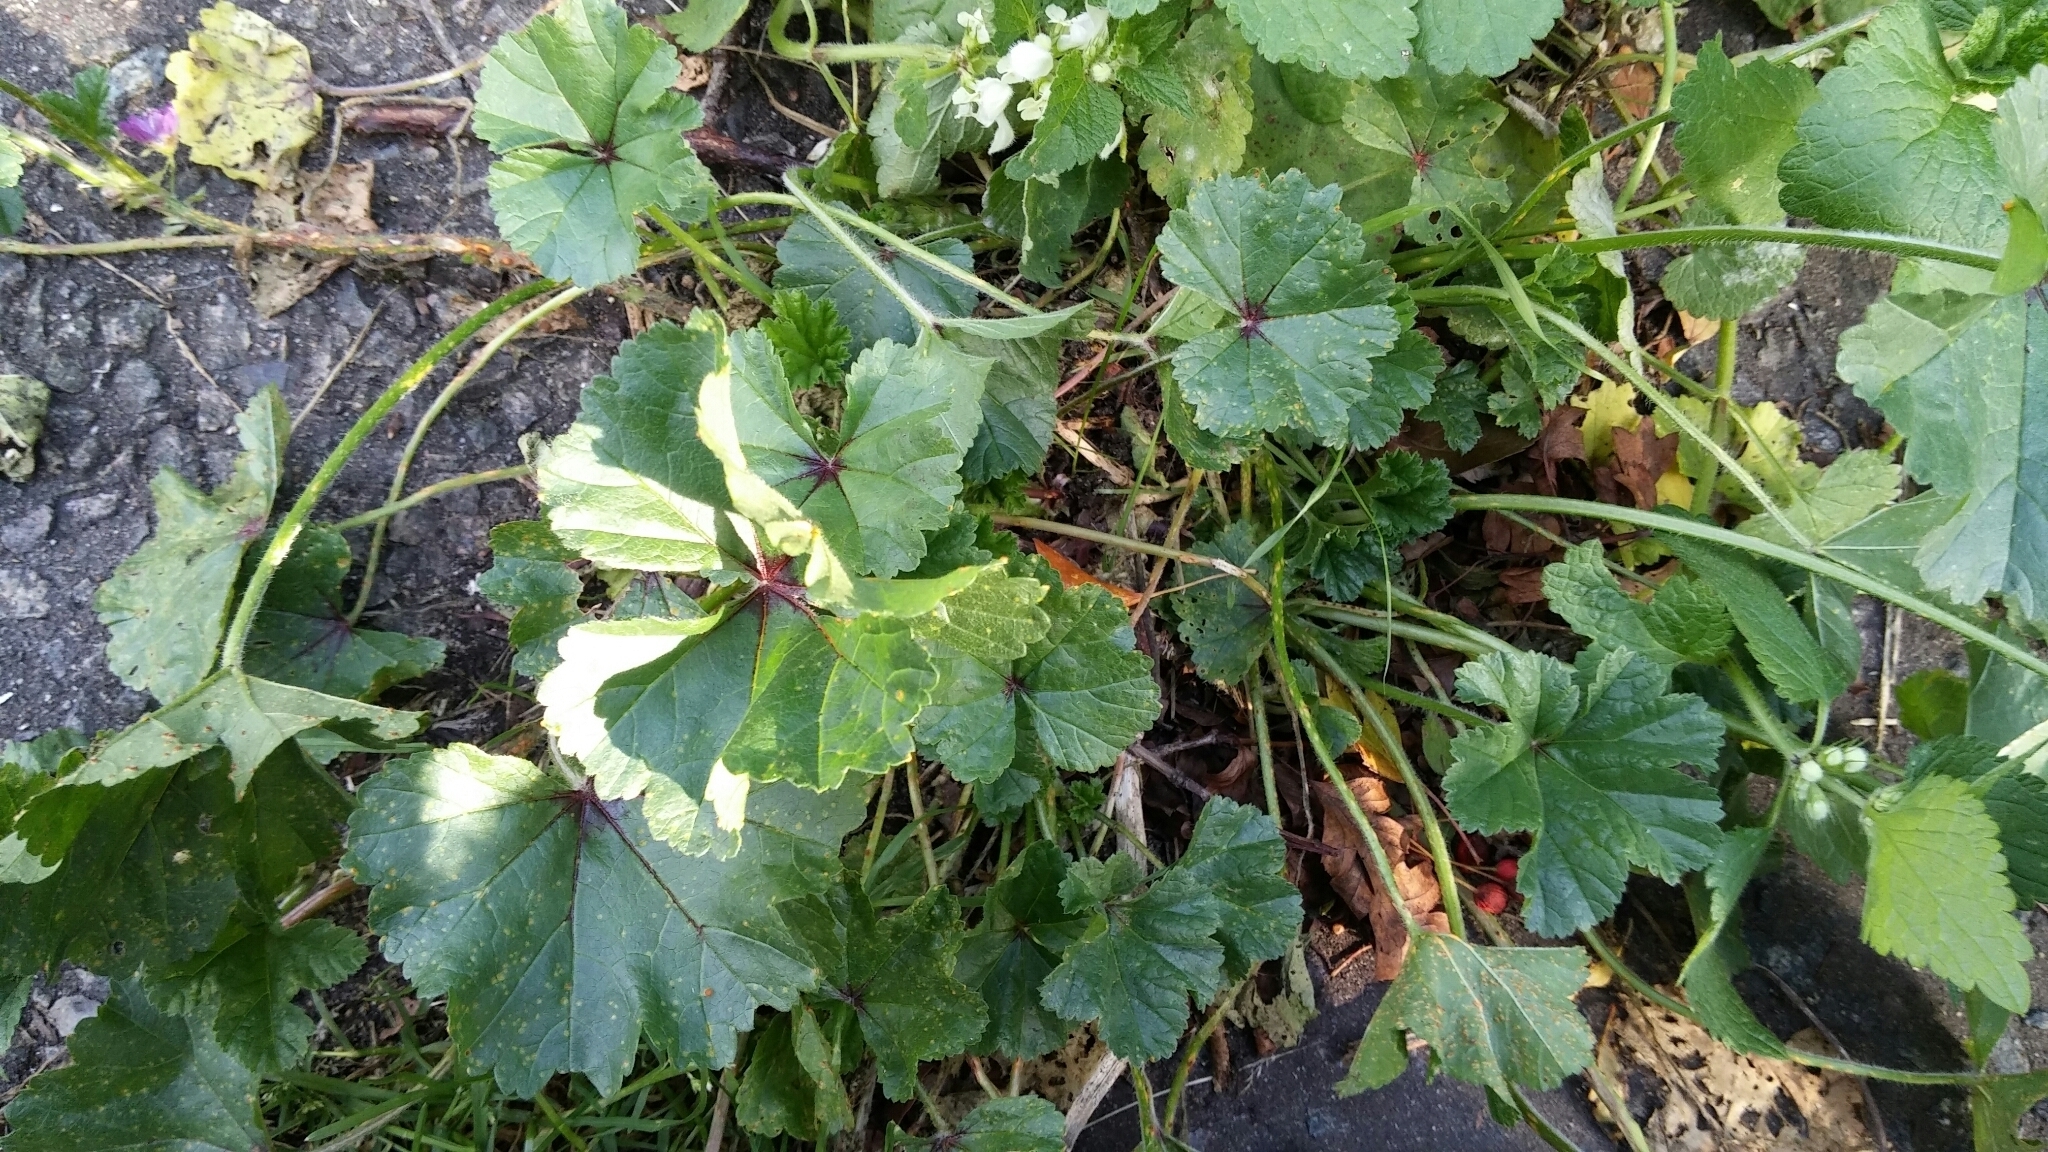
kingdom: Plantae
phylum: Tracheophyta
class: Magnoliopsida
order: Malvales
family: Malvaceae
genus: Malva
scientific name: Malva sylvestris
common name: Common mallow
